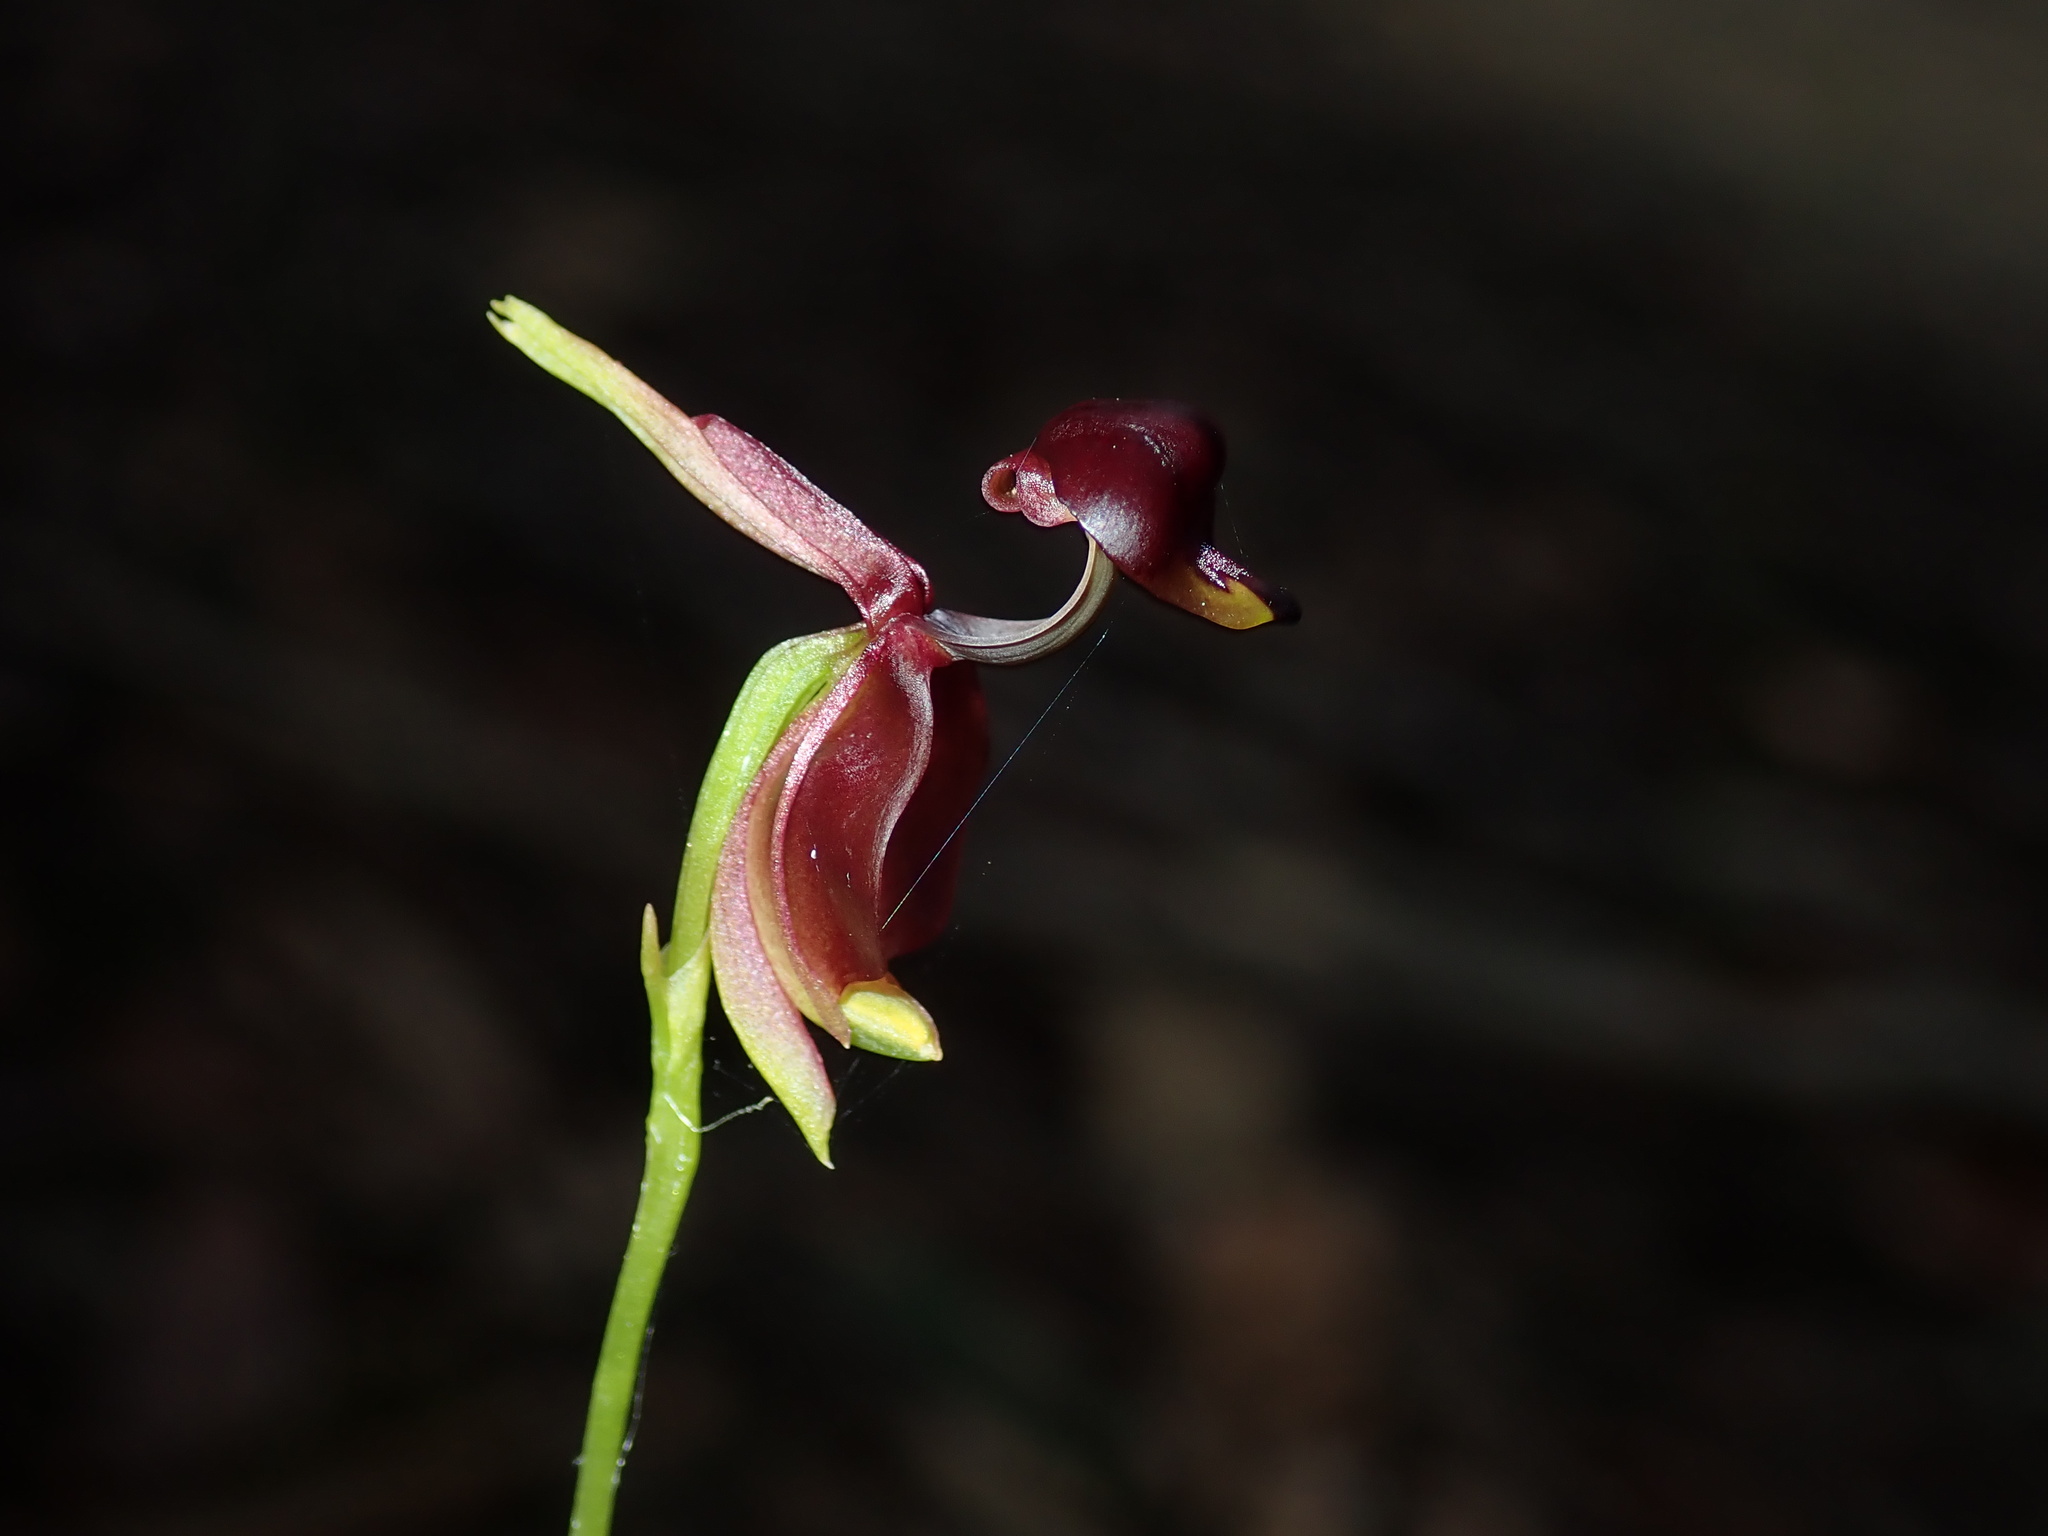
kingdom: Plantae
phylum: Tracheophyta
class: Liliopsida
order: Asparagales
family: Orchidaceae
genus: Caleana
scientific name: Caleana major
